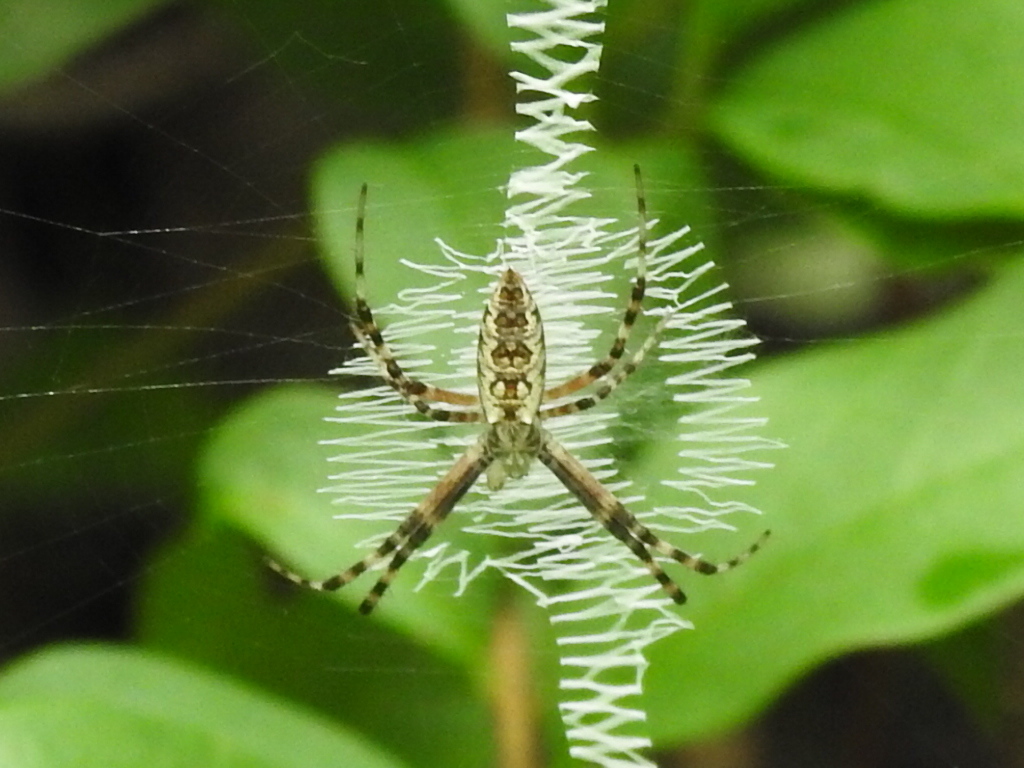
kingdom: Animalia
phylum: Arthropoda
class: Arachnida
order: Araneae
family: Araneidae
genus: Argiope
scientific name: Argiope aurantia
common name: Orb weavers
